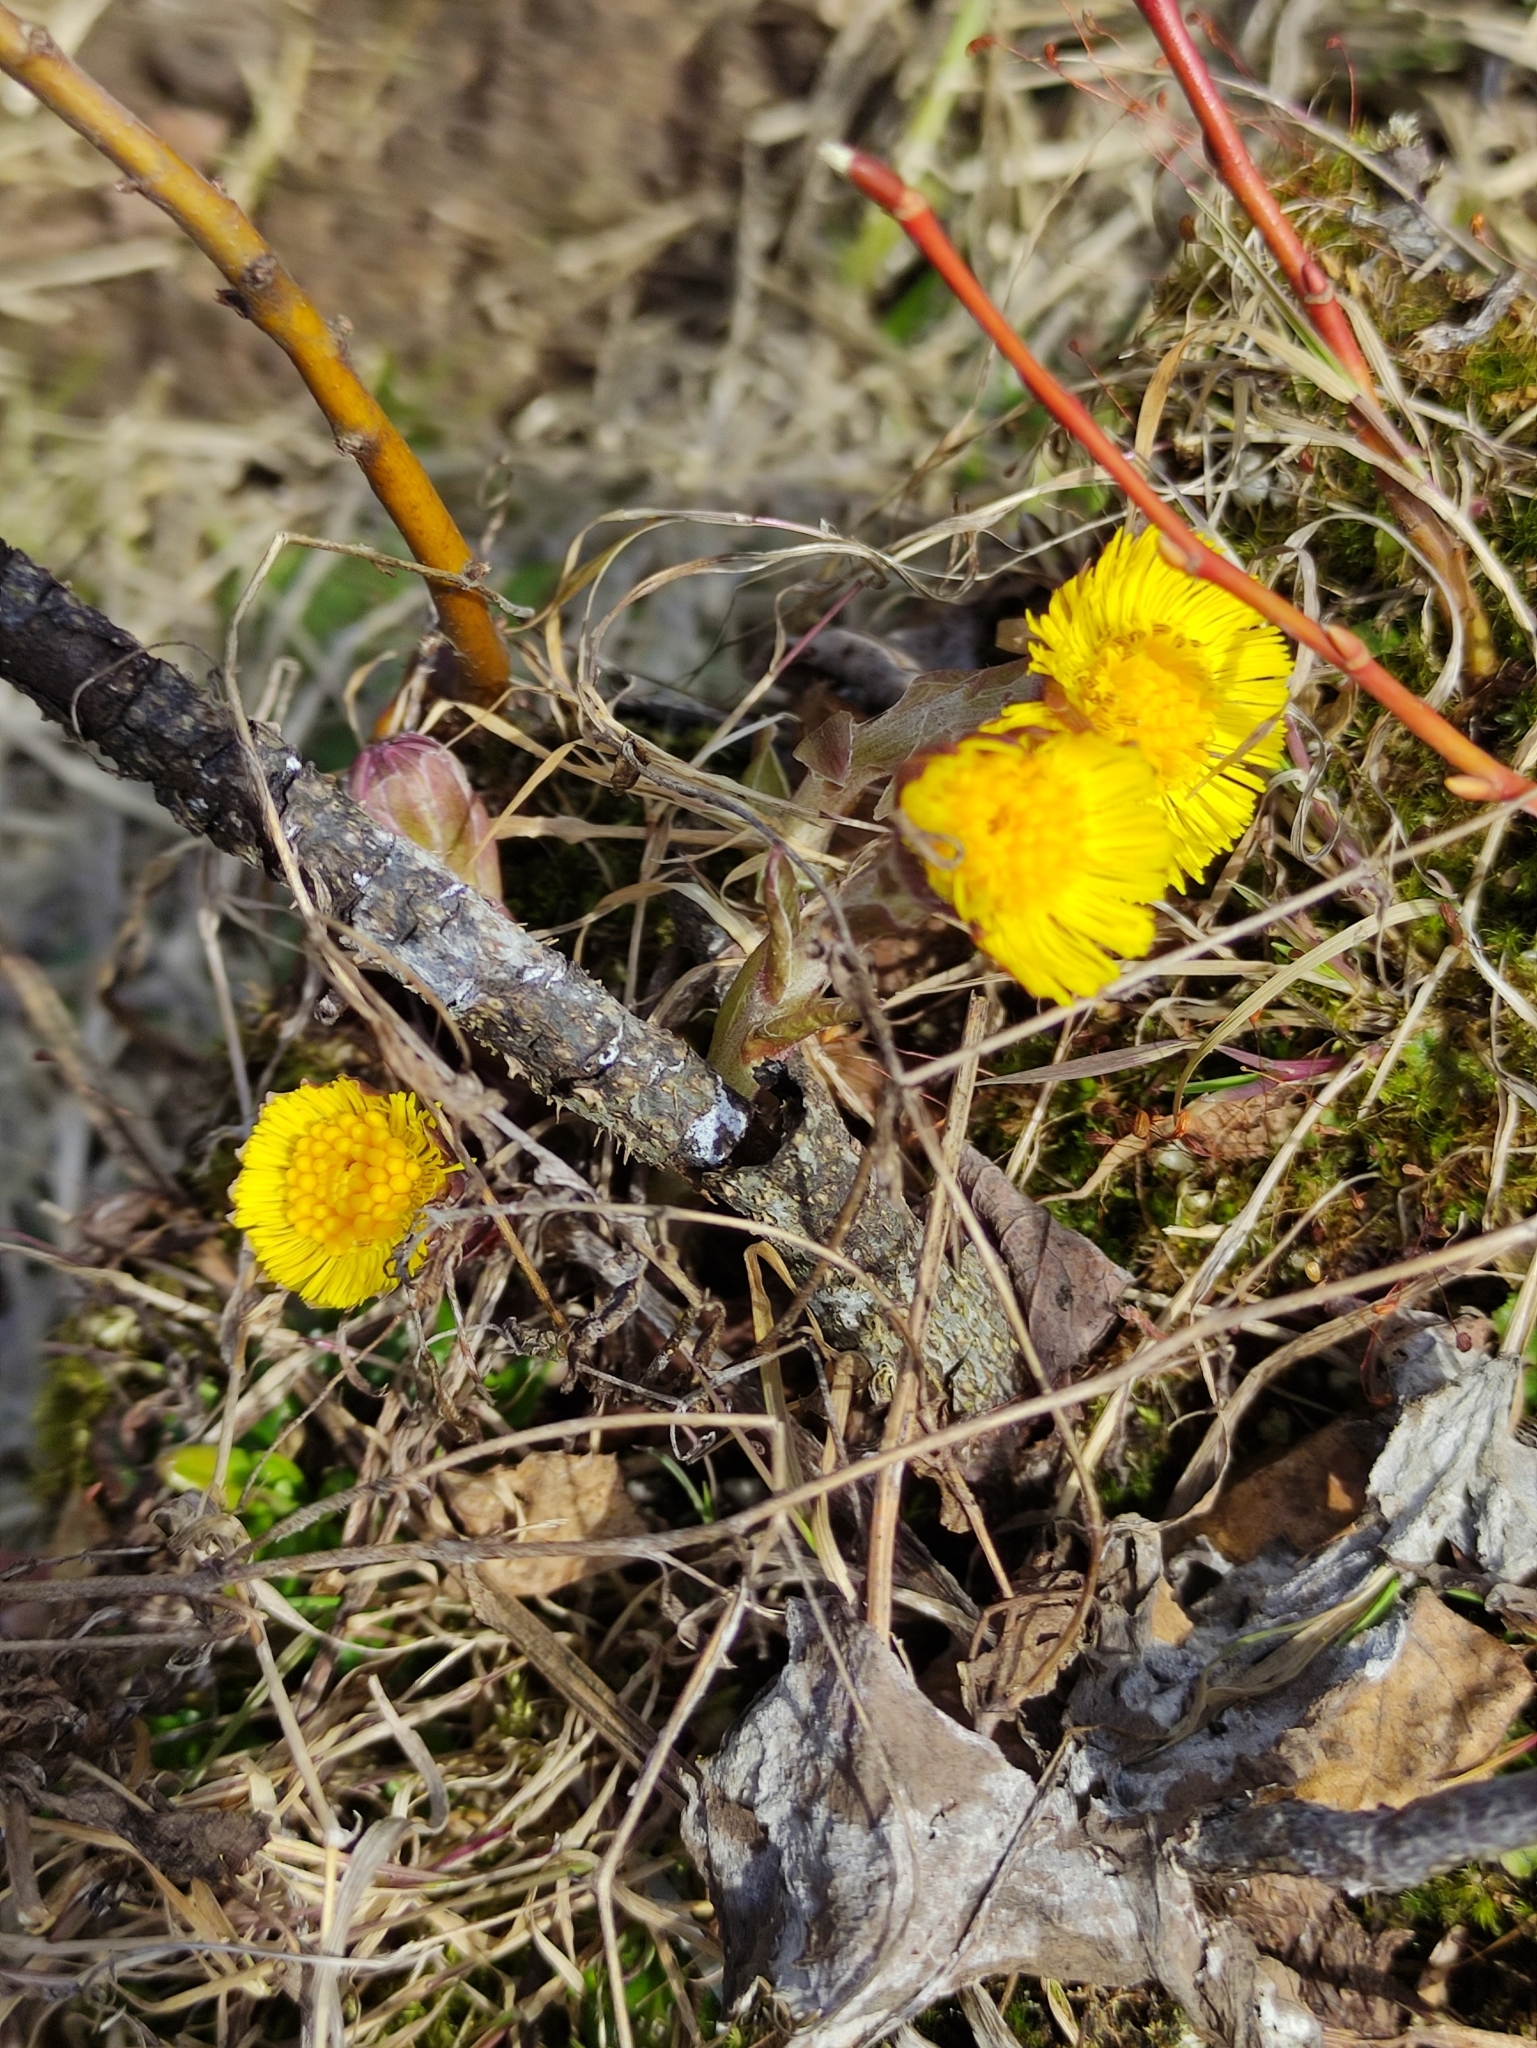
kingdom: Plantae
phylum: Tracheophyta
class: Magnoliopsida
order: Asterales
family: Asteraceae
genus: Tussilago
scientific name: Tussilago farfara
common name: Coltsfoot
